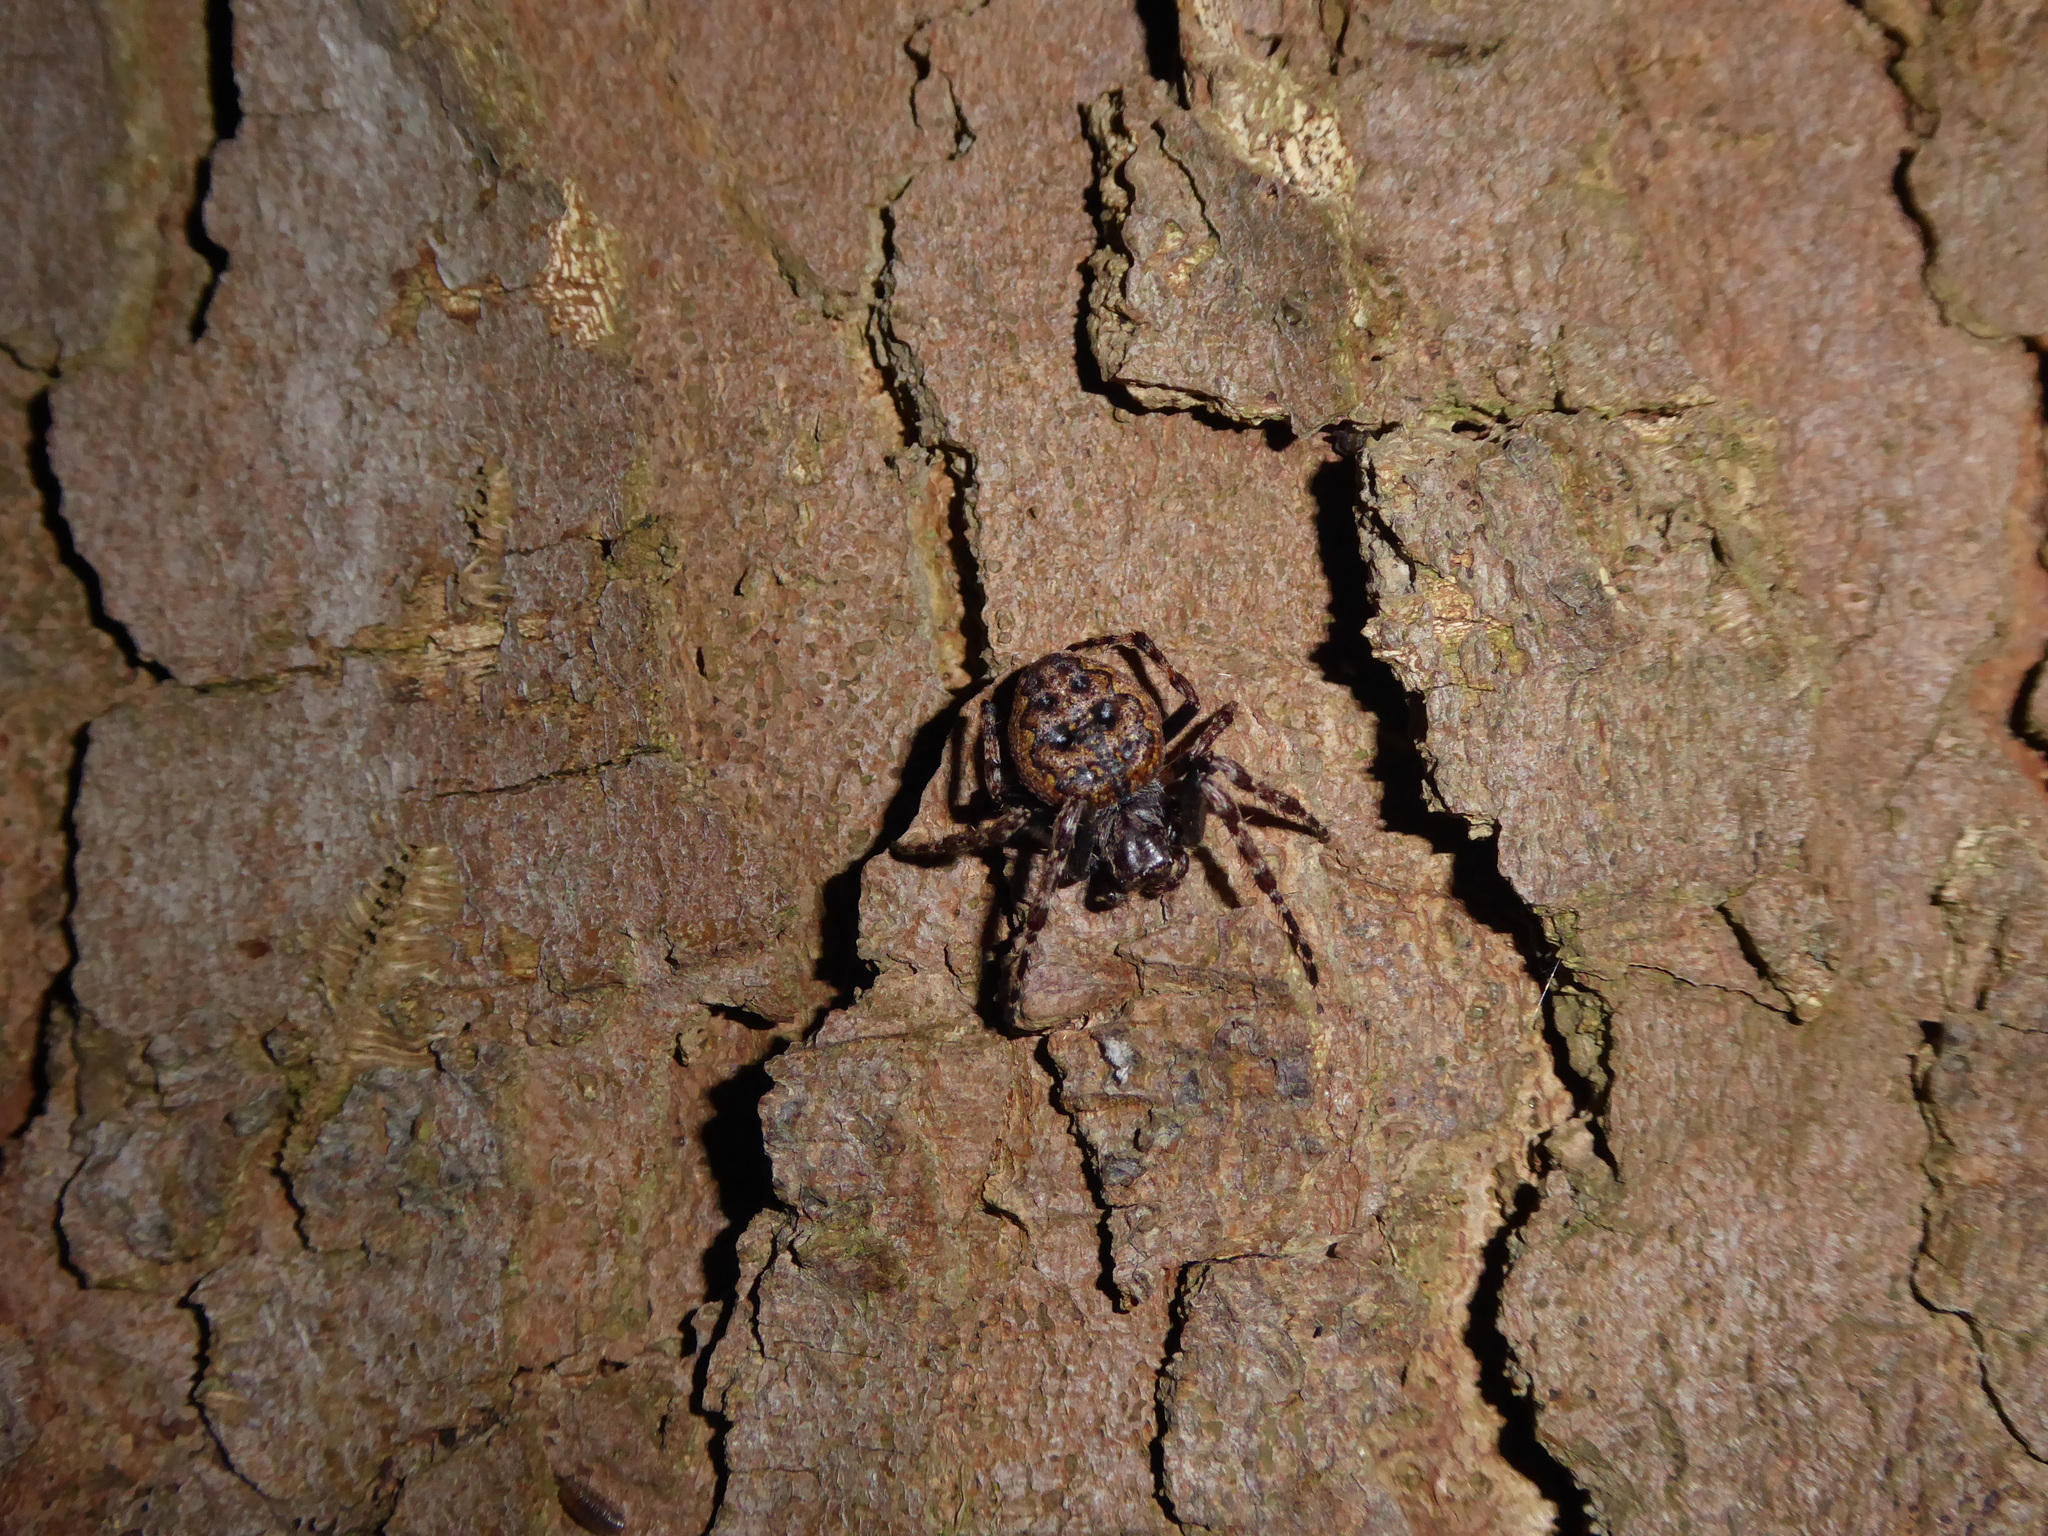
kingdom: Animalia
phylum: Arthropoda
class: Arachnida
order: Araneae
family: Araneidae
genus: Nuctenea
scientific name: Nuctenea umbratica
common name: Toad spider
